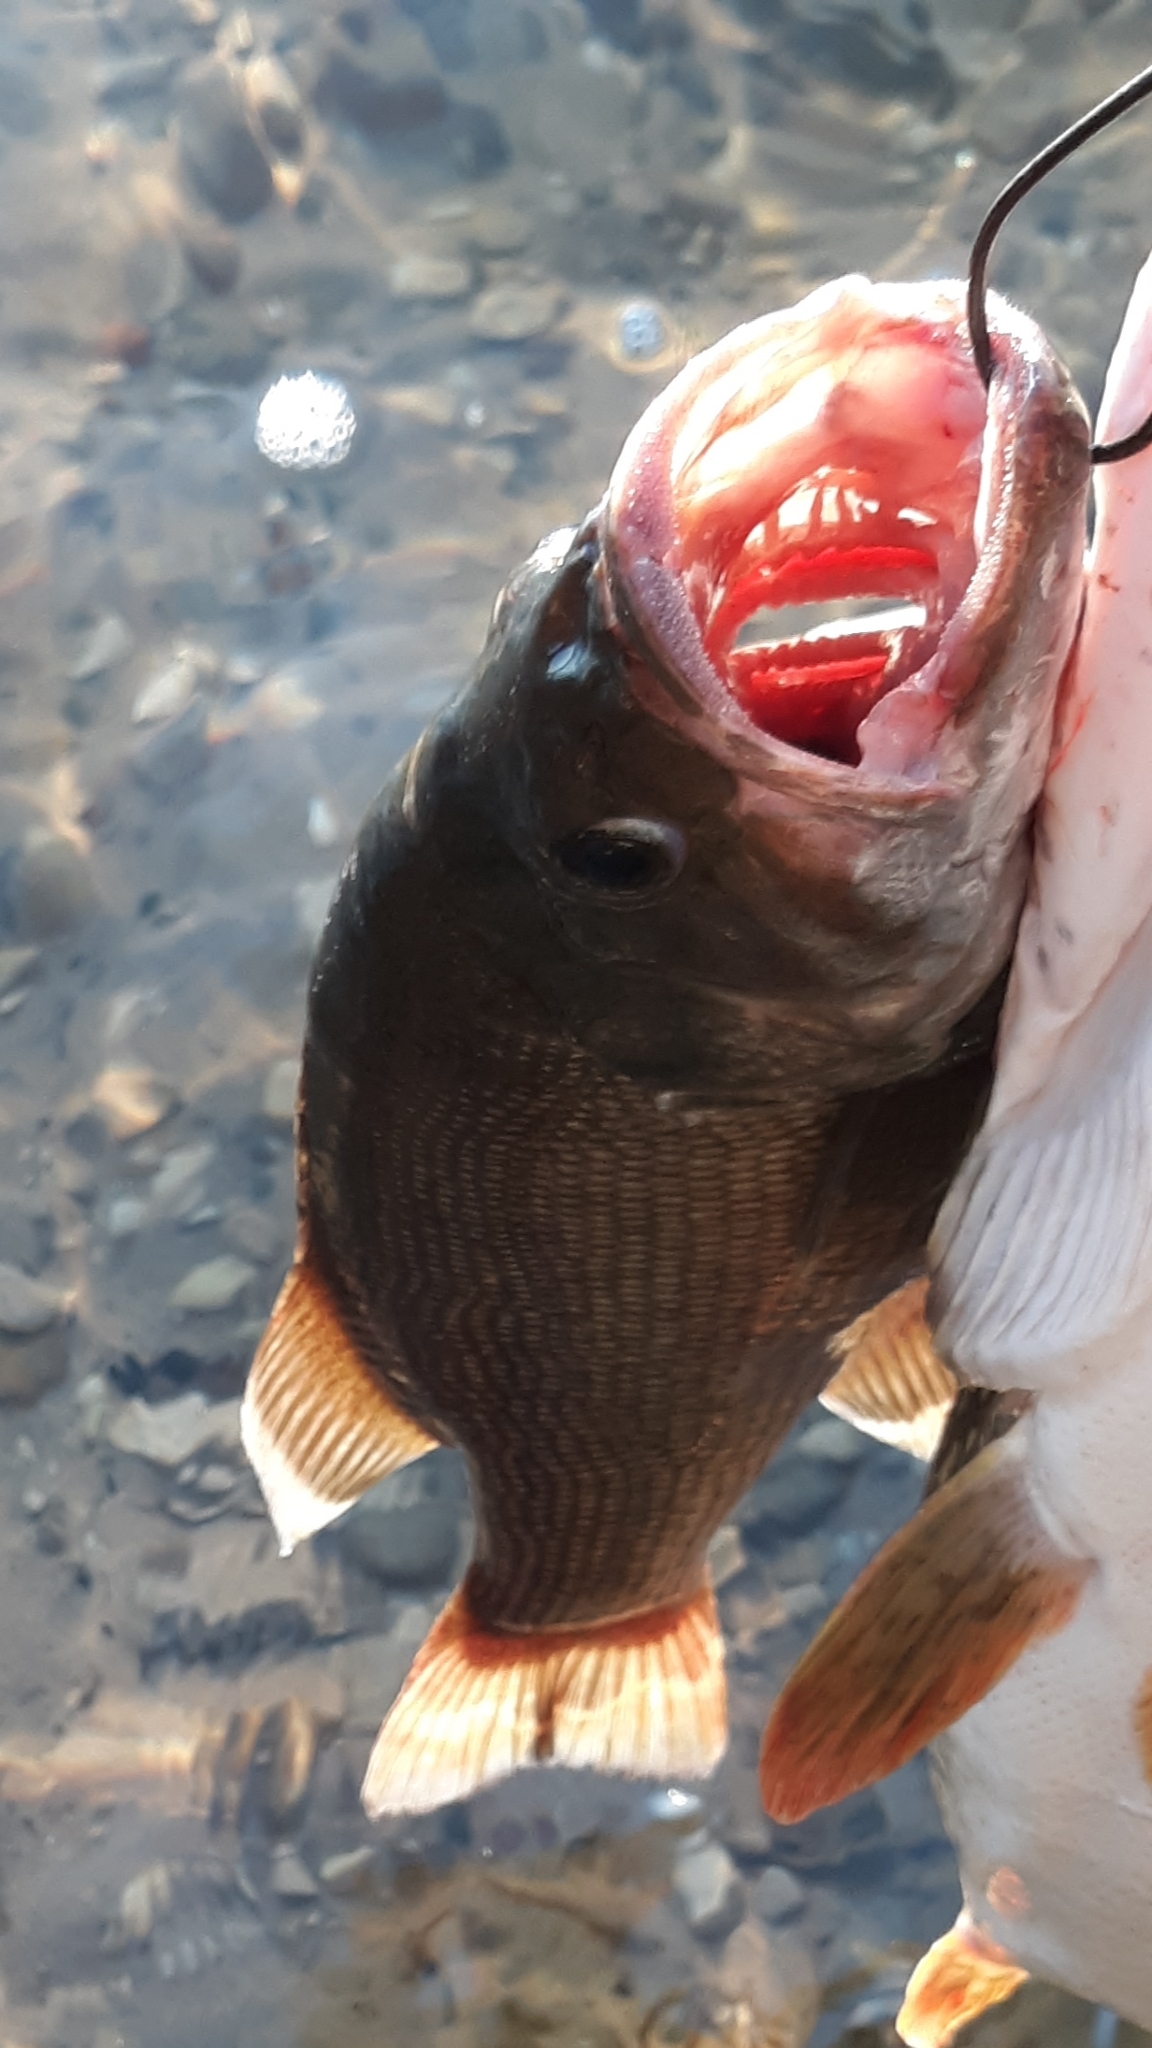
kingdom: Animalia
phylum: Chordata
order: Perciformes
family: Centrarchidae
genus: Micropterus
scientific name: Micropterus dolomieu
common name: Smallmouth bass
